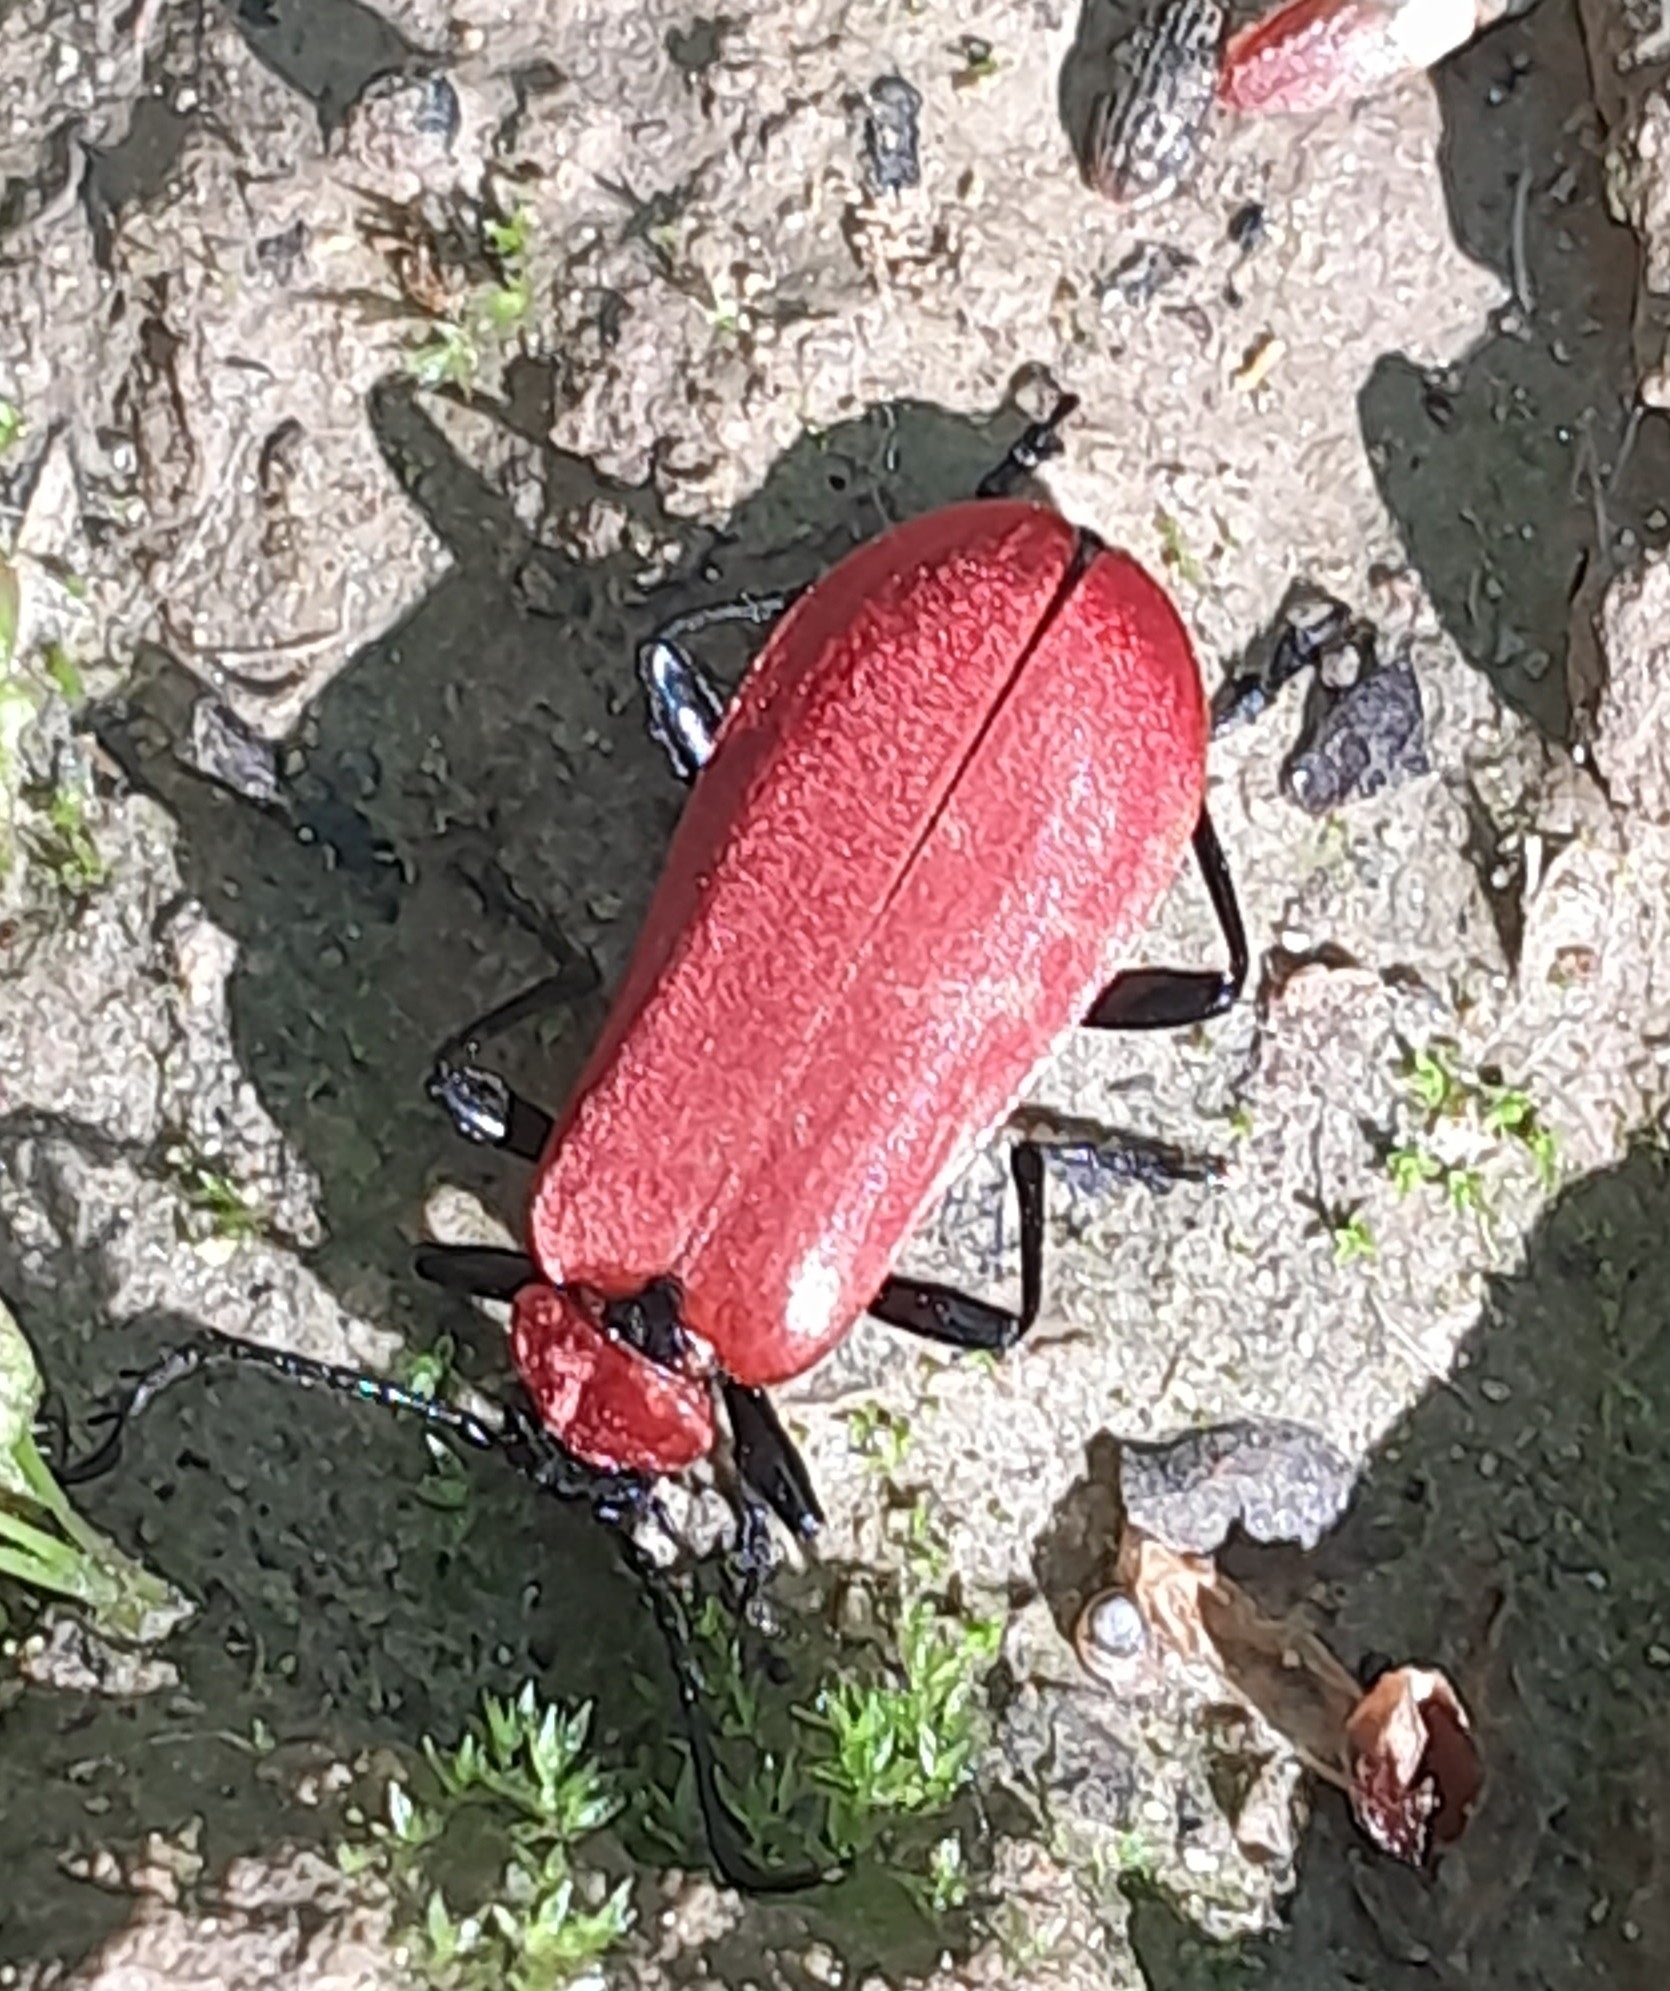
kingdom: Animalia
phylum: Arthropoda
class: Insecta
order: Coleoptera
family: Pyrochroidae
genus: Pyrochroa
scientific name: Pyrochroa coccinea
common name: Black-headed cardinal beetle
